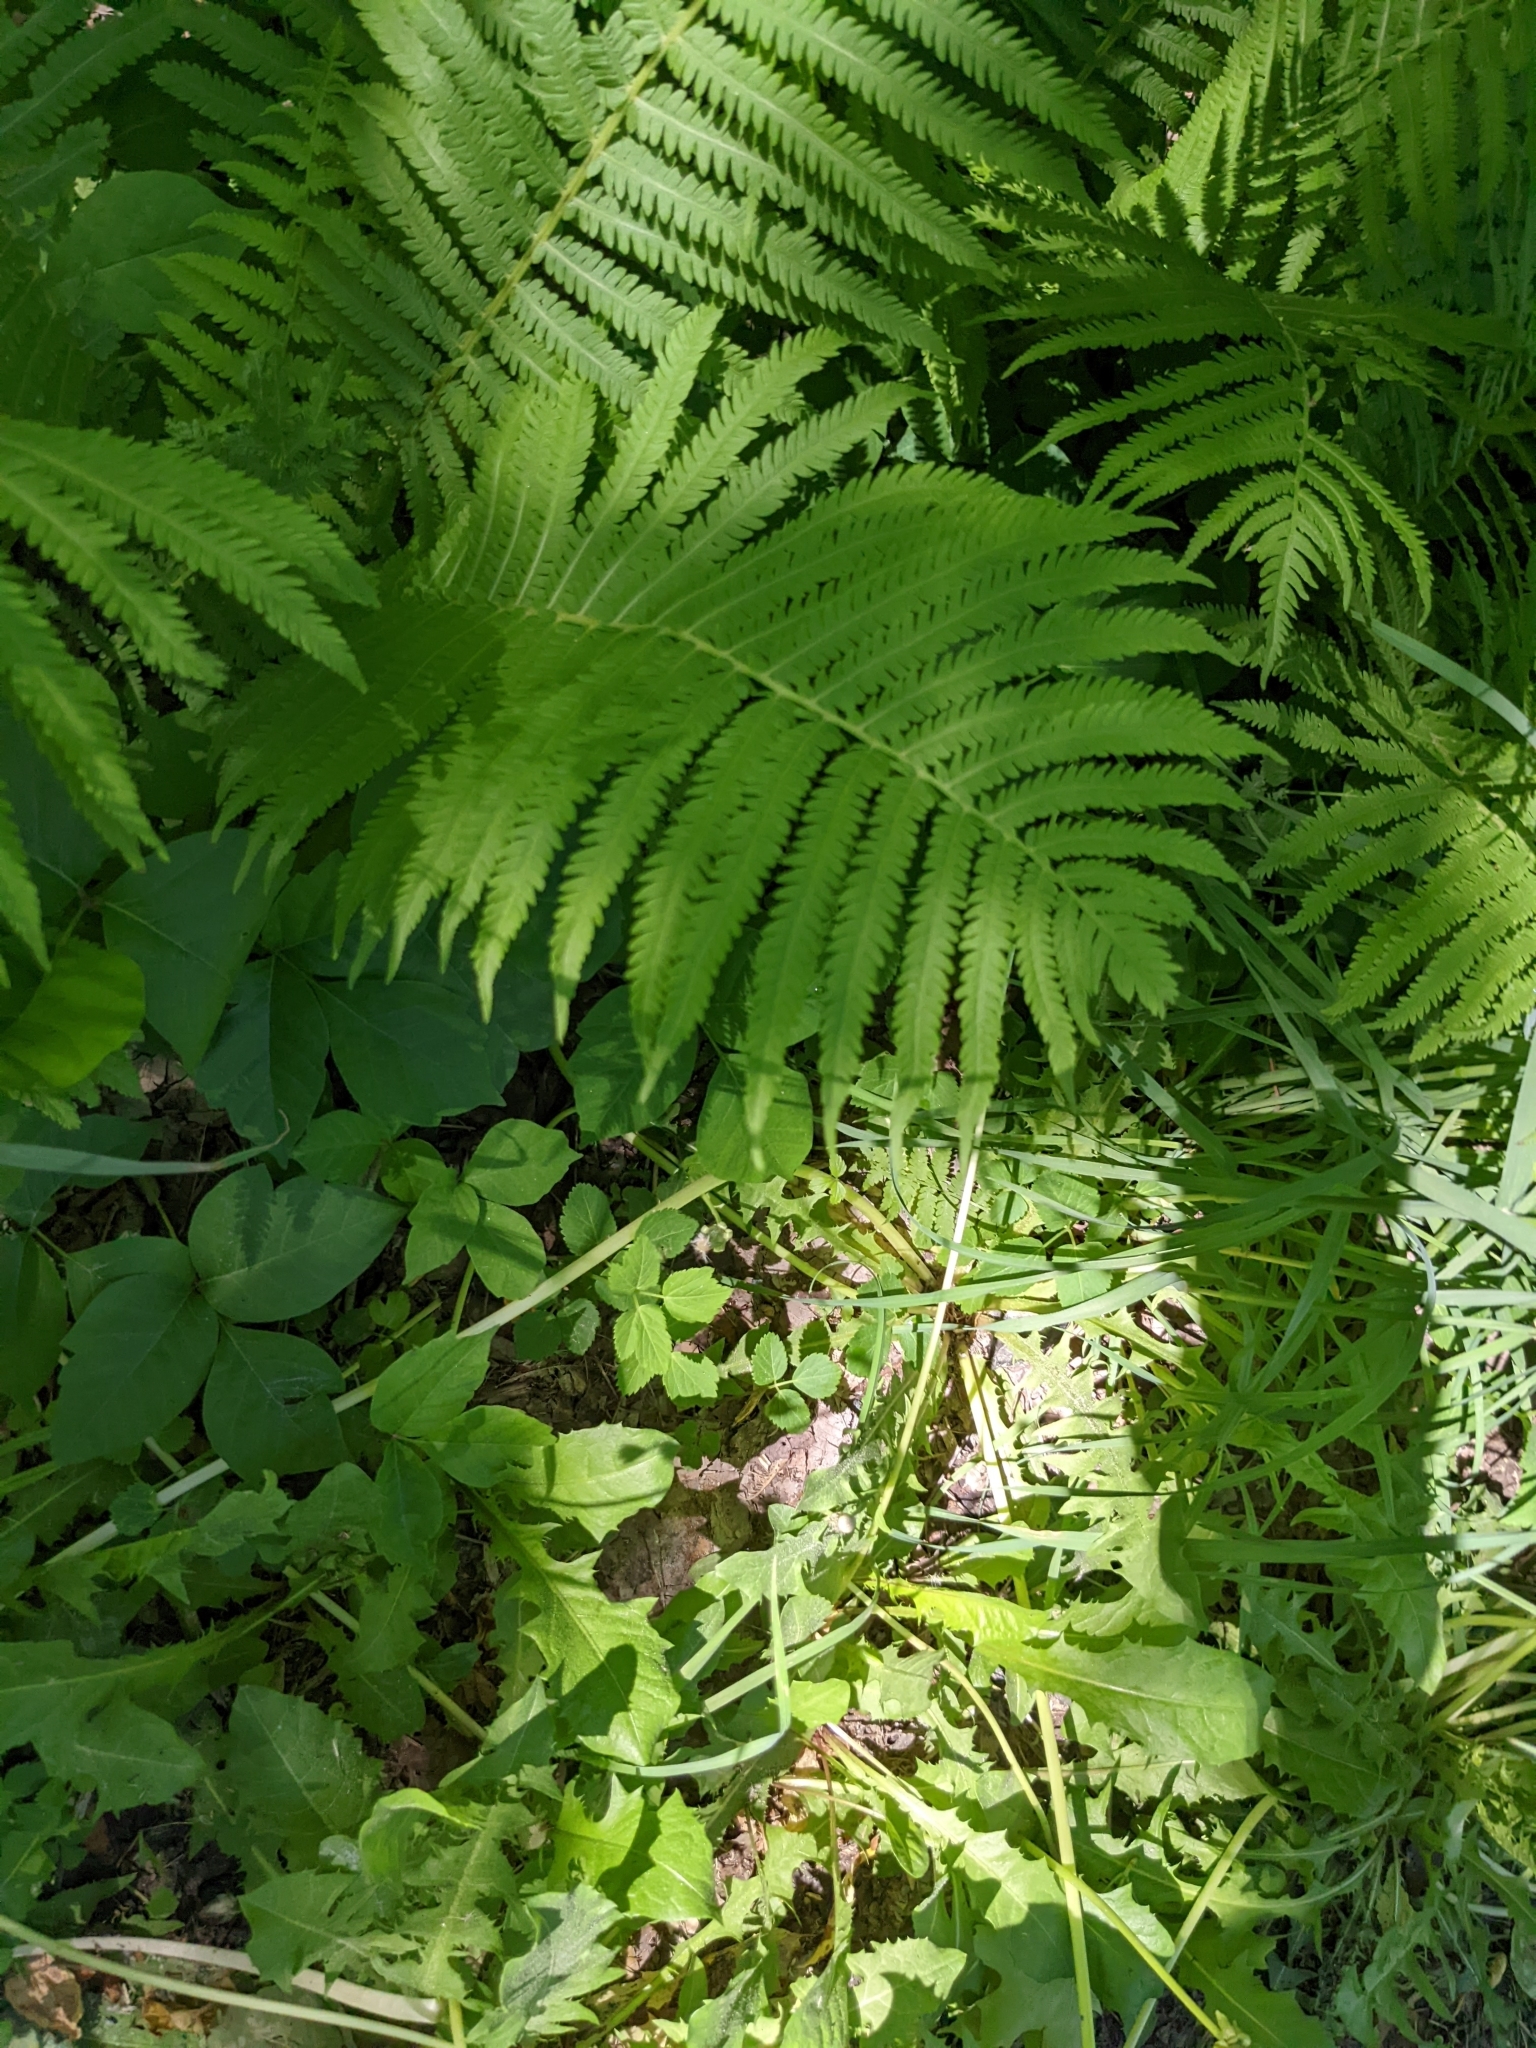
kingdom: Plantae
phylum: Tracheophyta
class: Polypodiopsida
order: Polypodiales
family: Onocleaceae
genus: Matteuccia
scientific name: Matteuccia struthiopteris
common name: Ostrich fern
